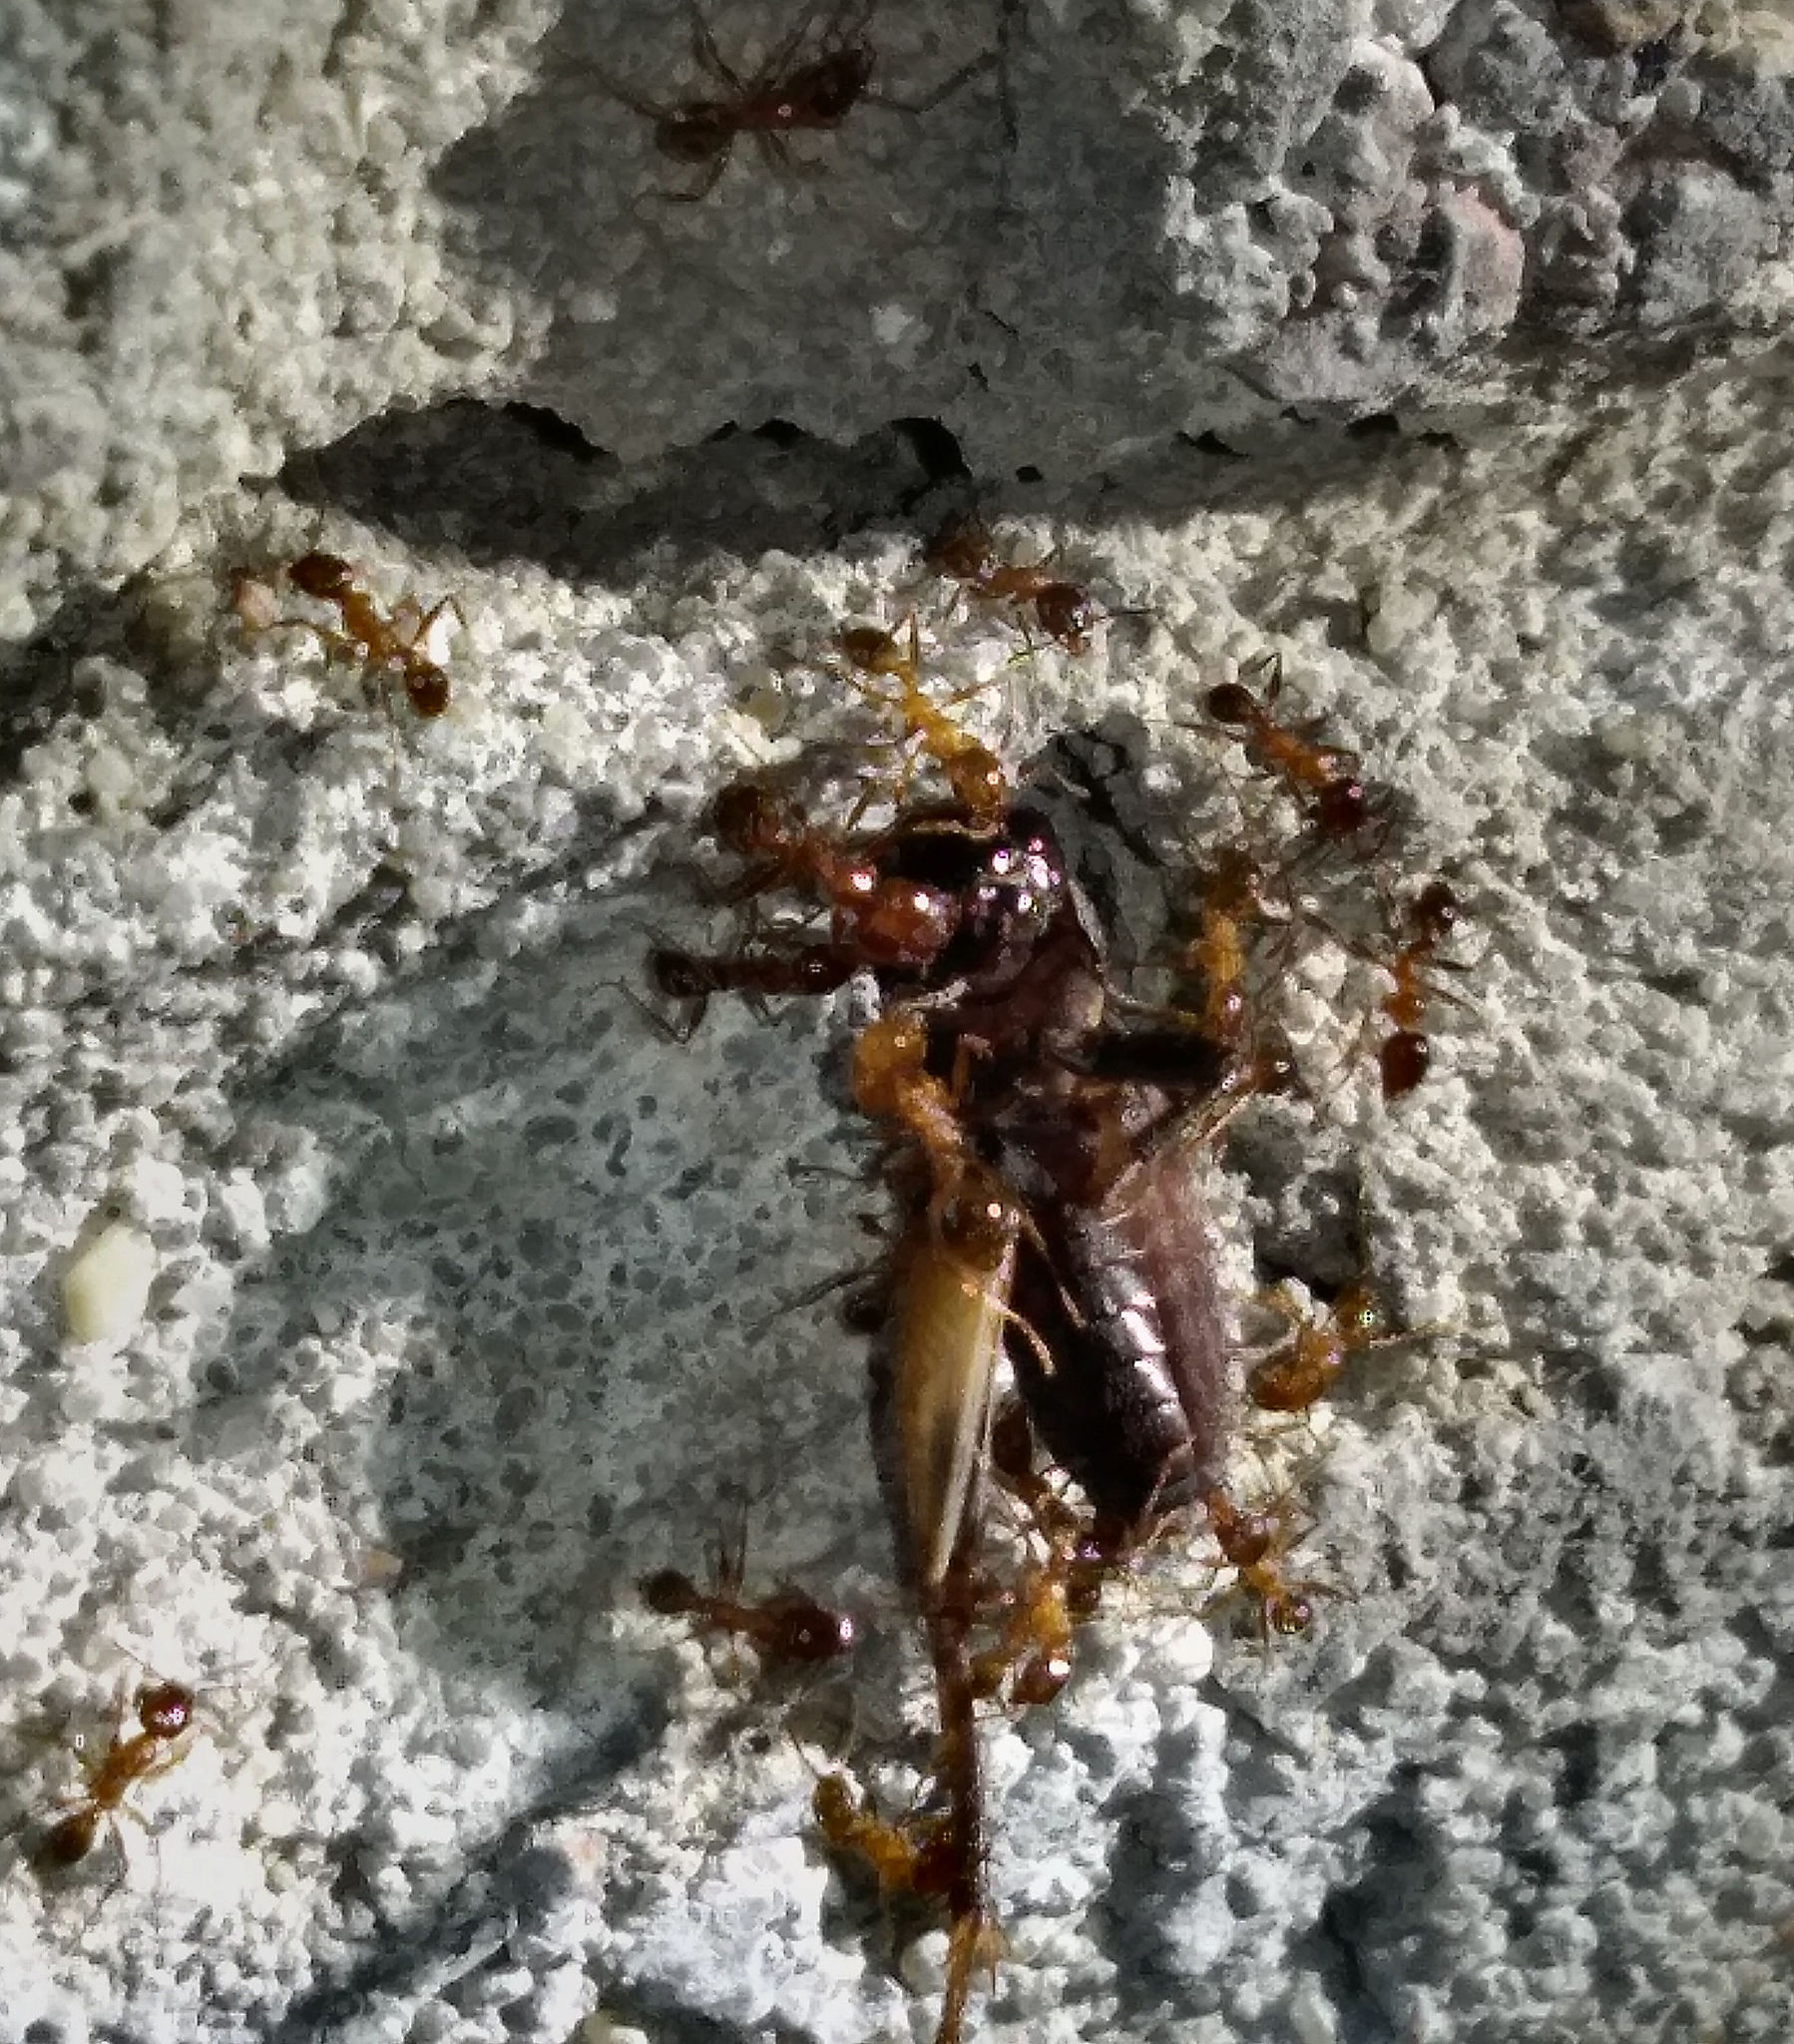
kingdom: Animalia
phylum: Arthropoda
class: Insecta
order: Hymenoptera
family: Formicidae
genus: Pheidole
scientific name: Pheidole dentata
